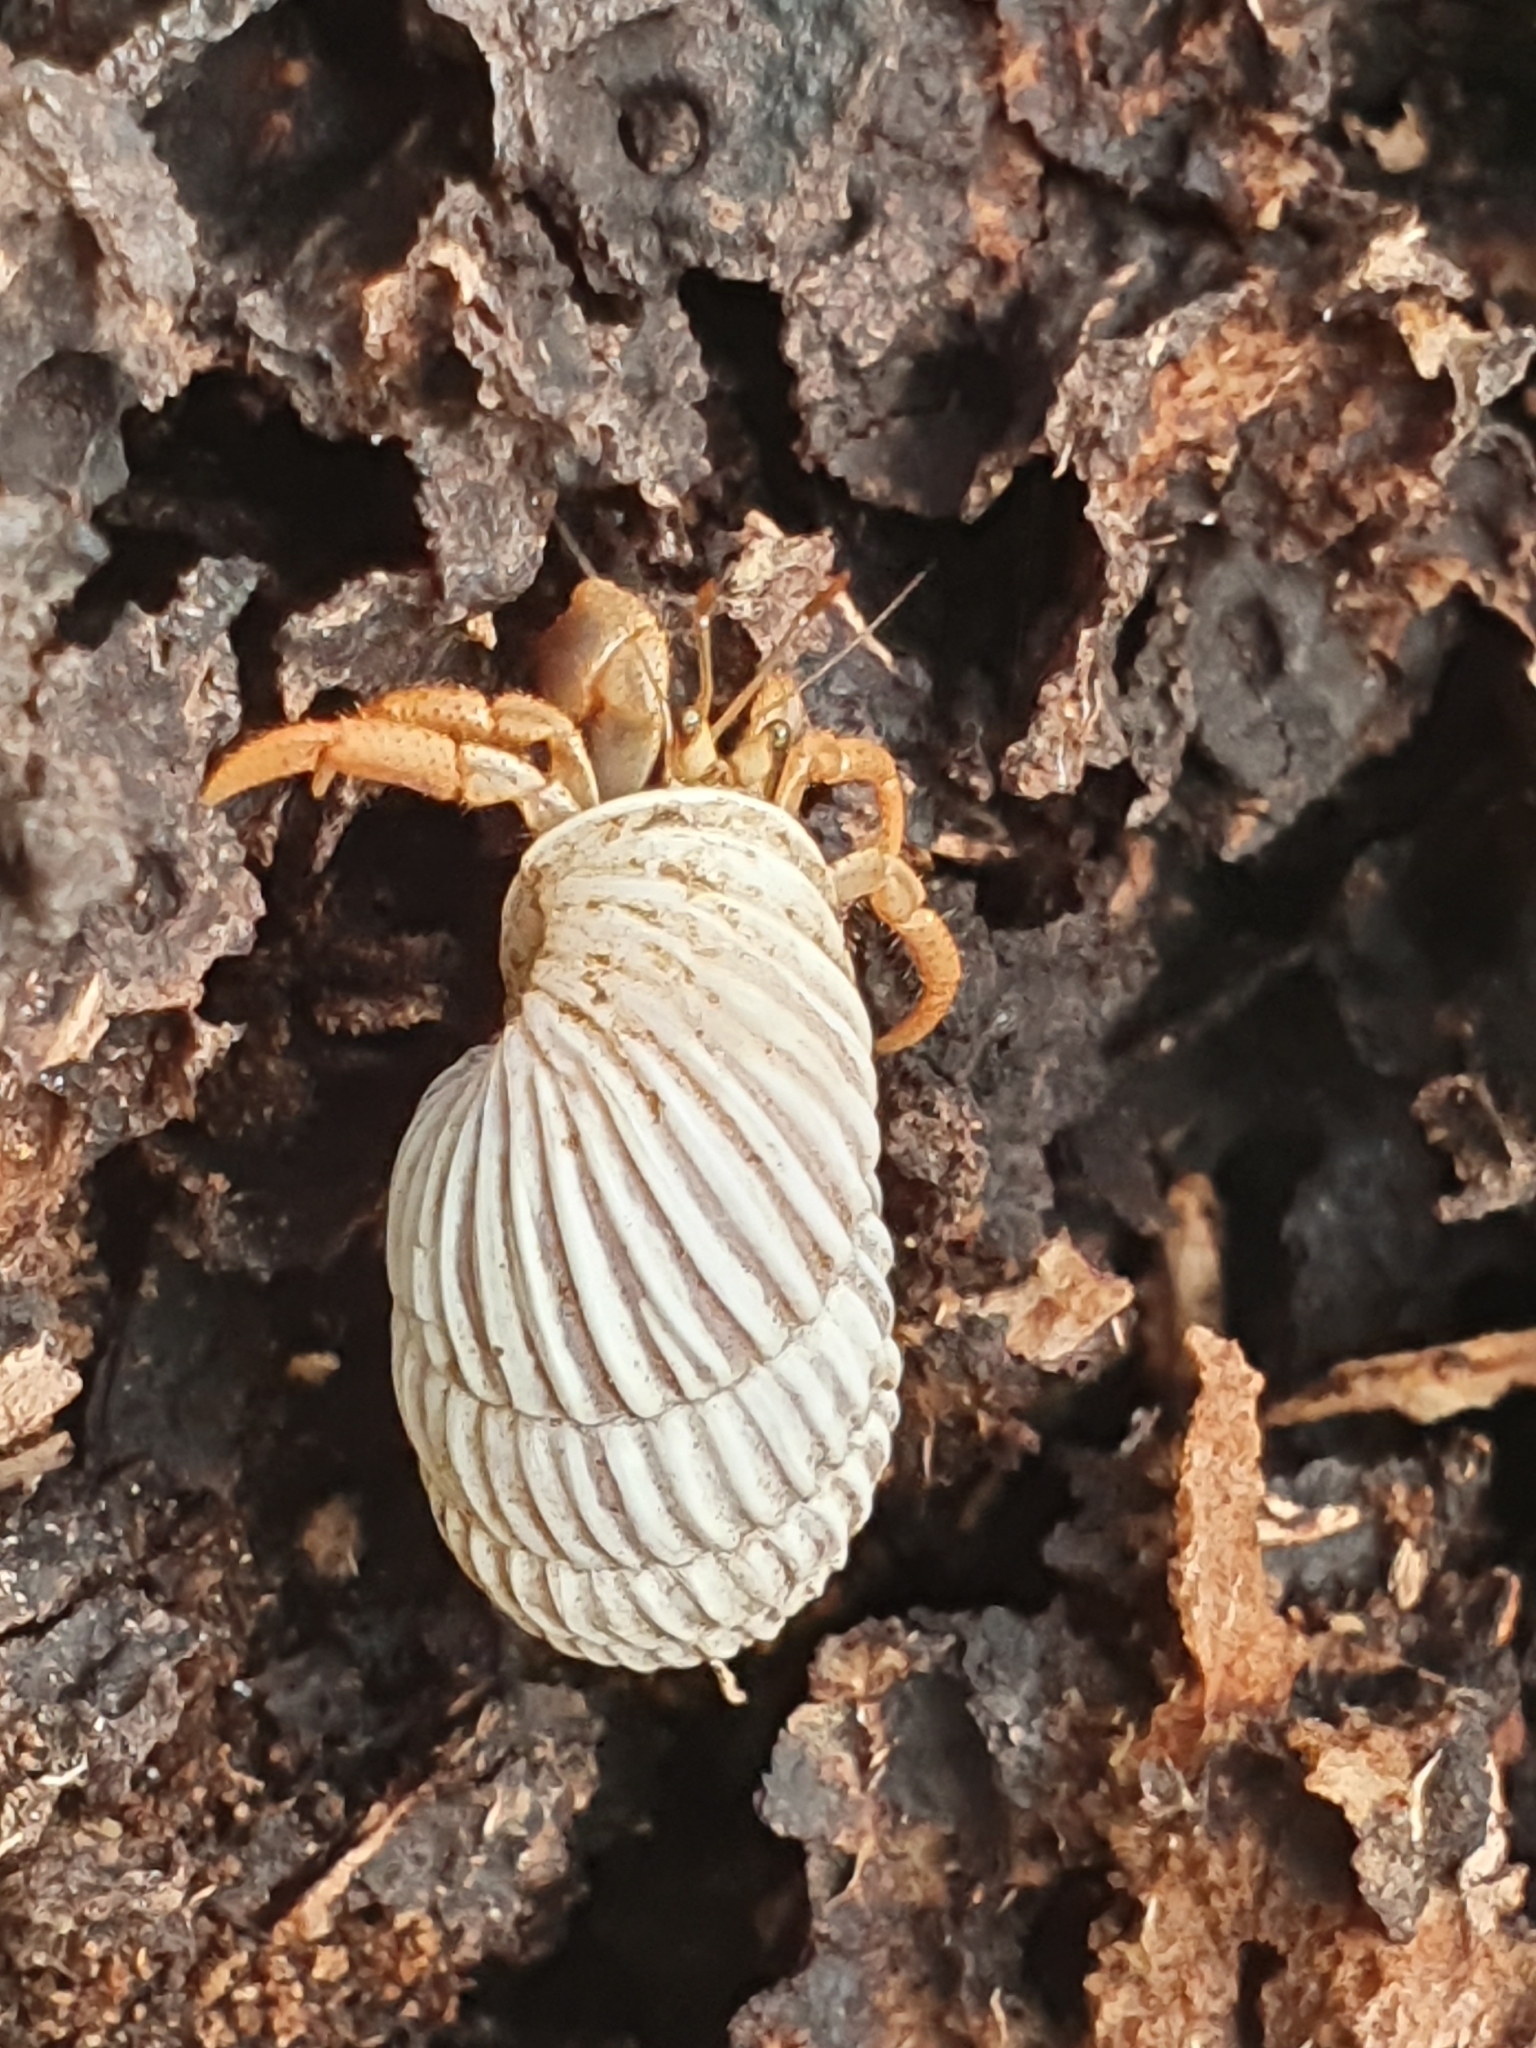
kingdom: Animalia
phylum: Arthropoda
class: Malacostraca
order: Decapoda
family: Coenobitidae
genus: Coenobita
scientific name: Coenobita clypeatus
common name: Caribbean hermit crab
